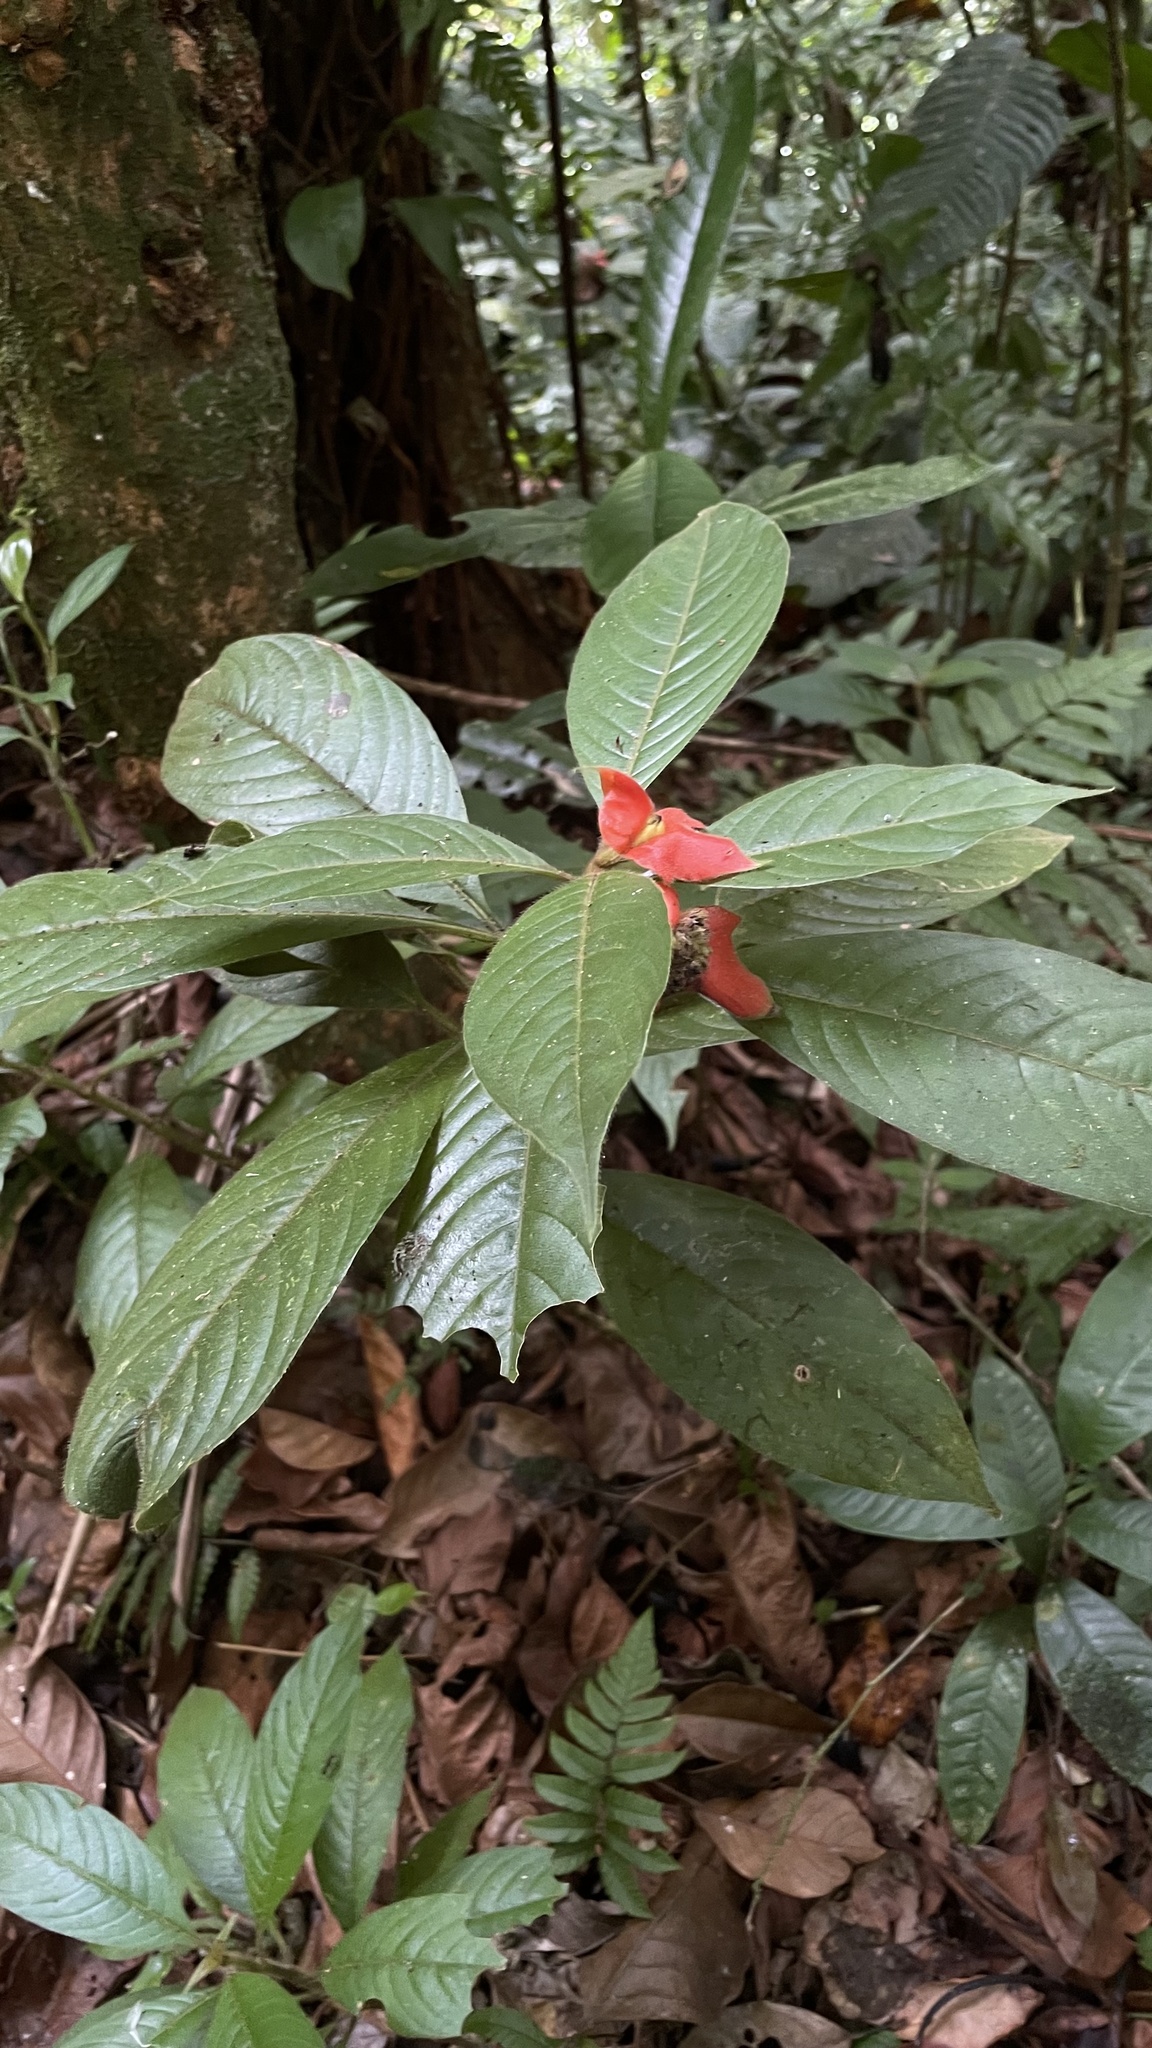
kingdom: Plantae
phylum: Tracheophyta
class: Magnoliopsida
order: Gentianales
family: Rubiaceae
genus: Palicourea
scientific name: Palicourea tomentosa
